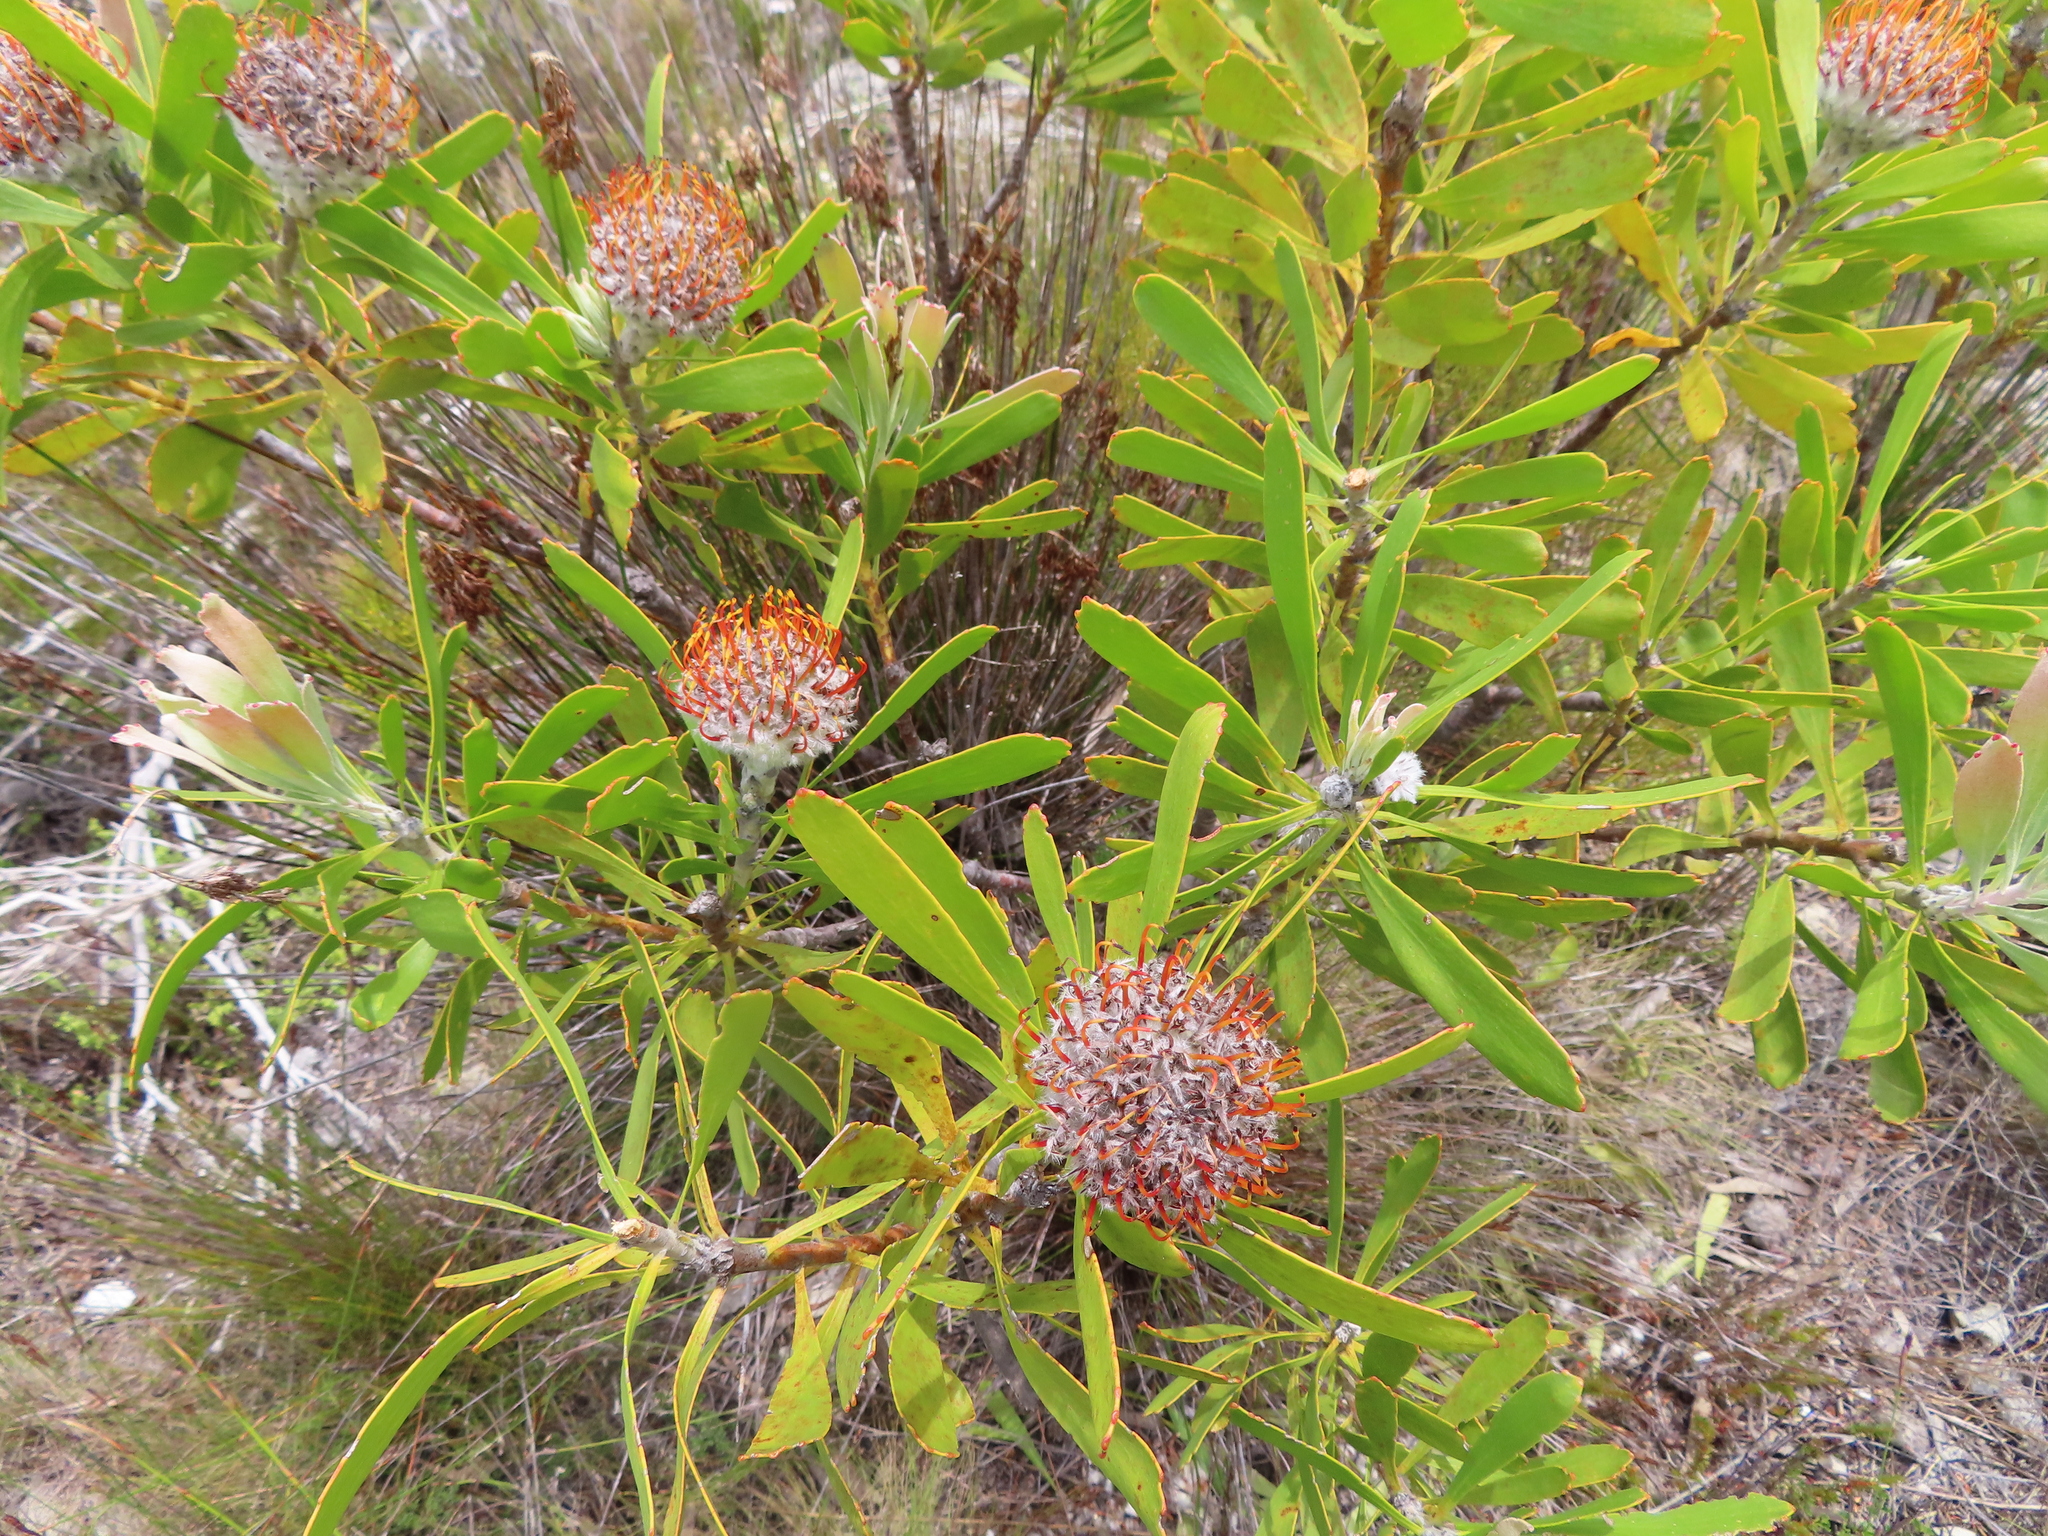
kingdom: Plantae
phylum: Tracheophyta
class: Magnoliopsida
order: Proteales
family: Proteaceae
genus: Leucospermum
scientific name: Leucospermum truncatum
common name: Limestone pincushion
